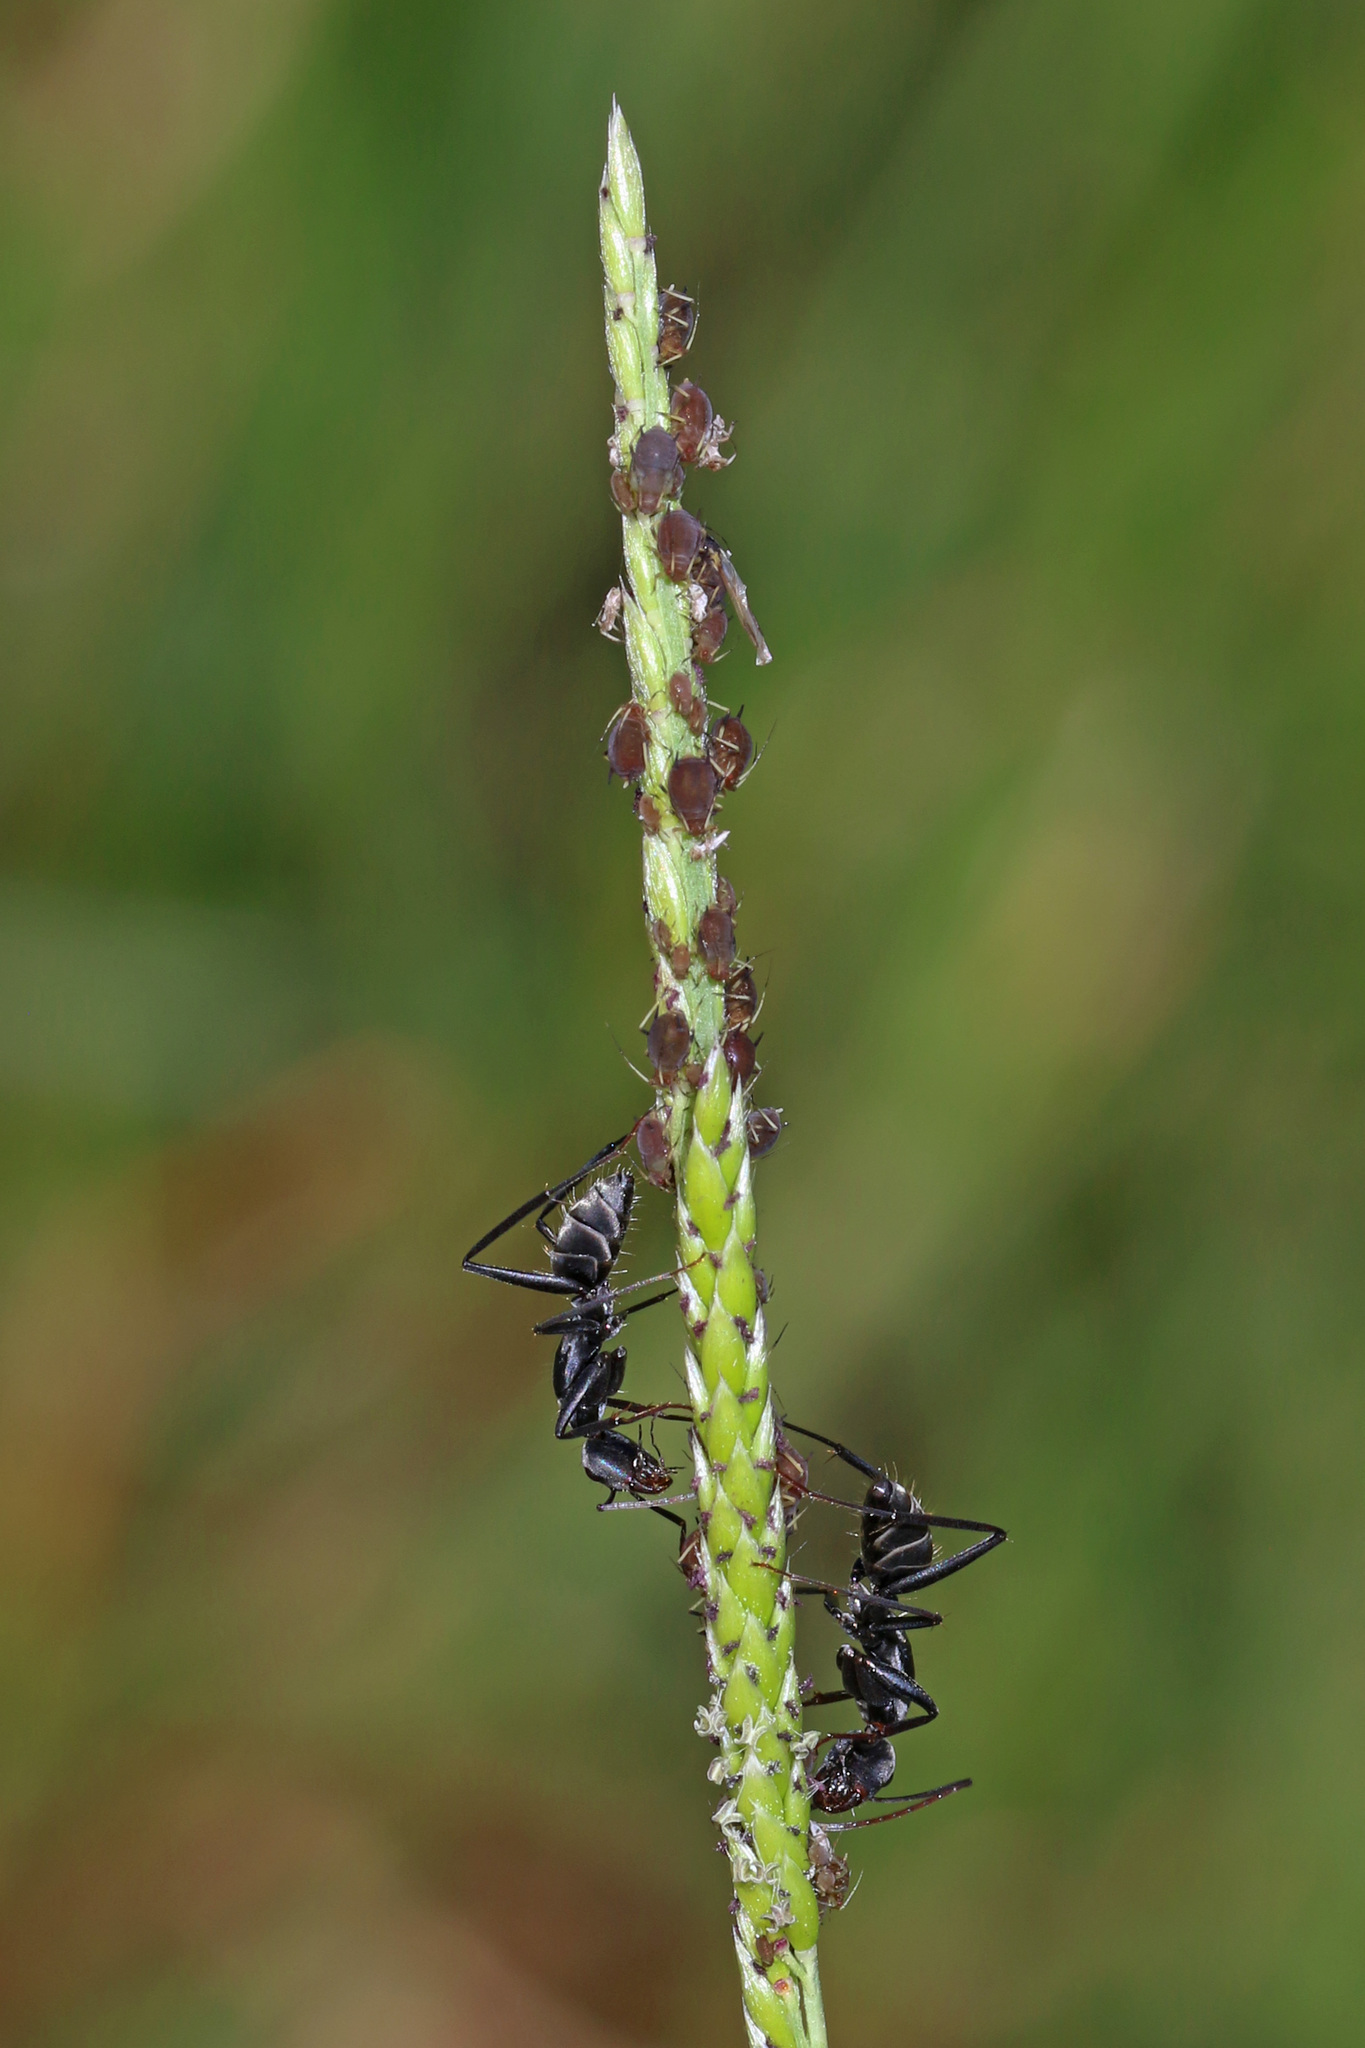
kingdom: Animalia
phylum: Arthropoda
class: Insecta
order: Hymenoptera
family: Formicidae
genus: Camponotus
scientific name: Camponotus fornasinii
